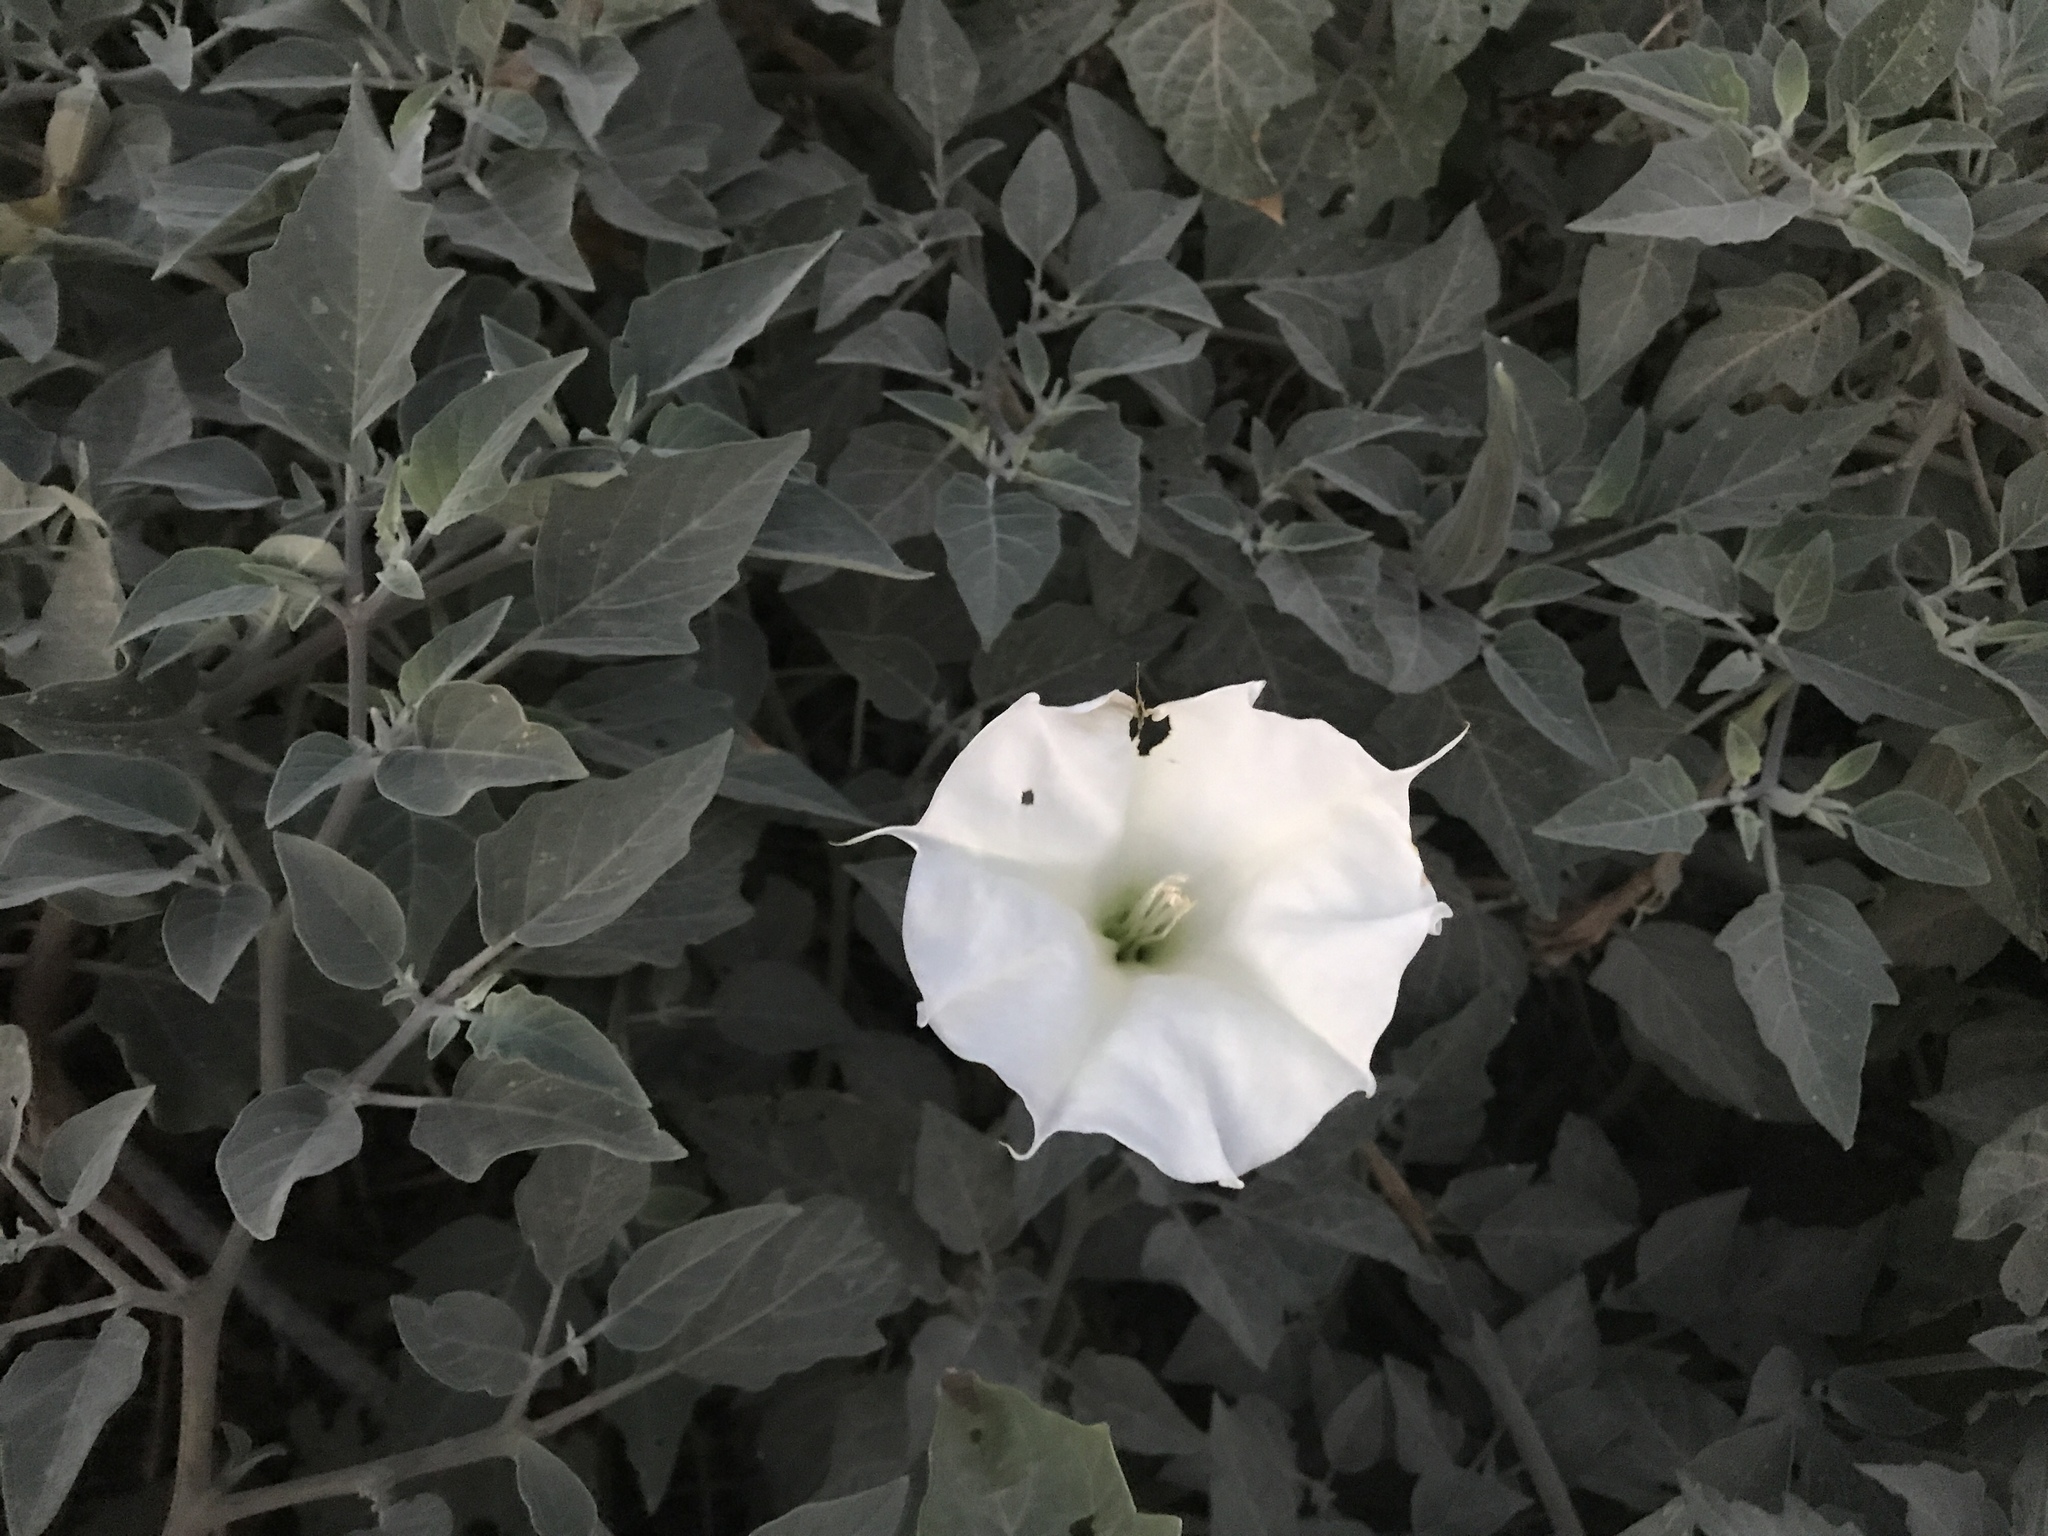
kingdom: Plantae
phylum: Tracheophyta
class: Magnoliopsida
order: Solanales
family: Solanaceae
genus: Datura
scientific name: Datura wrightii
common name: Sacred thorn-apple
